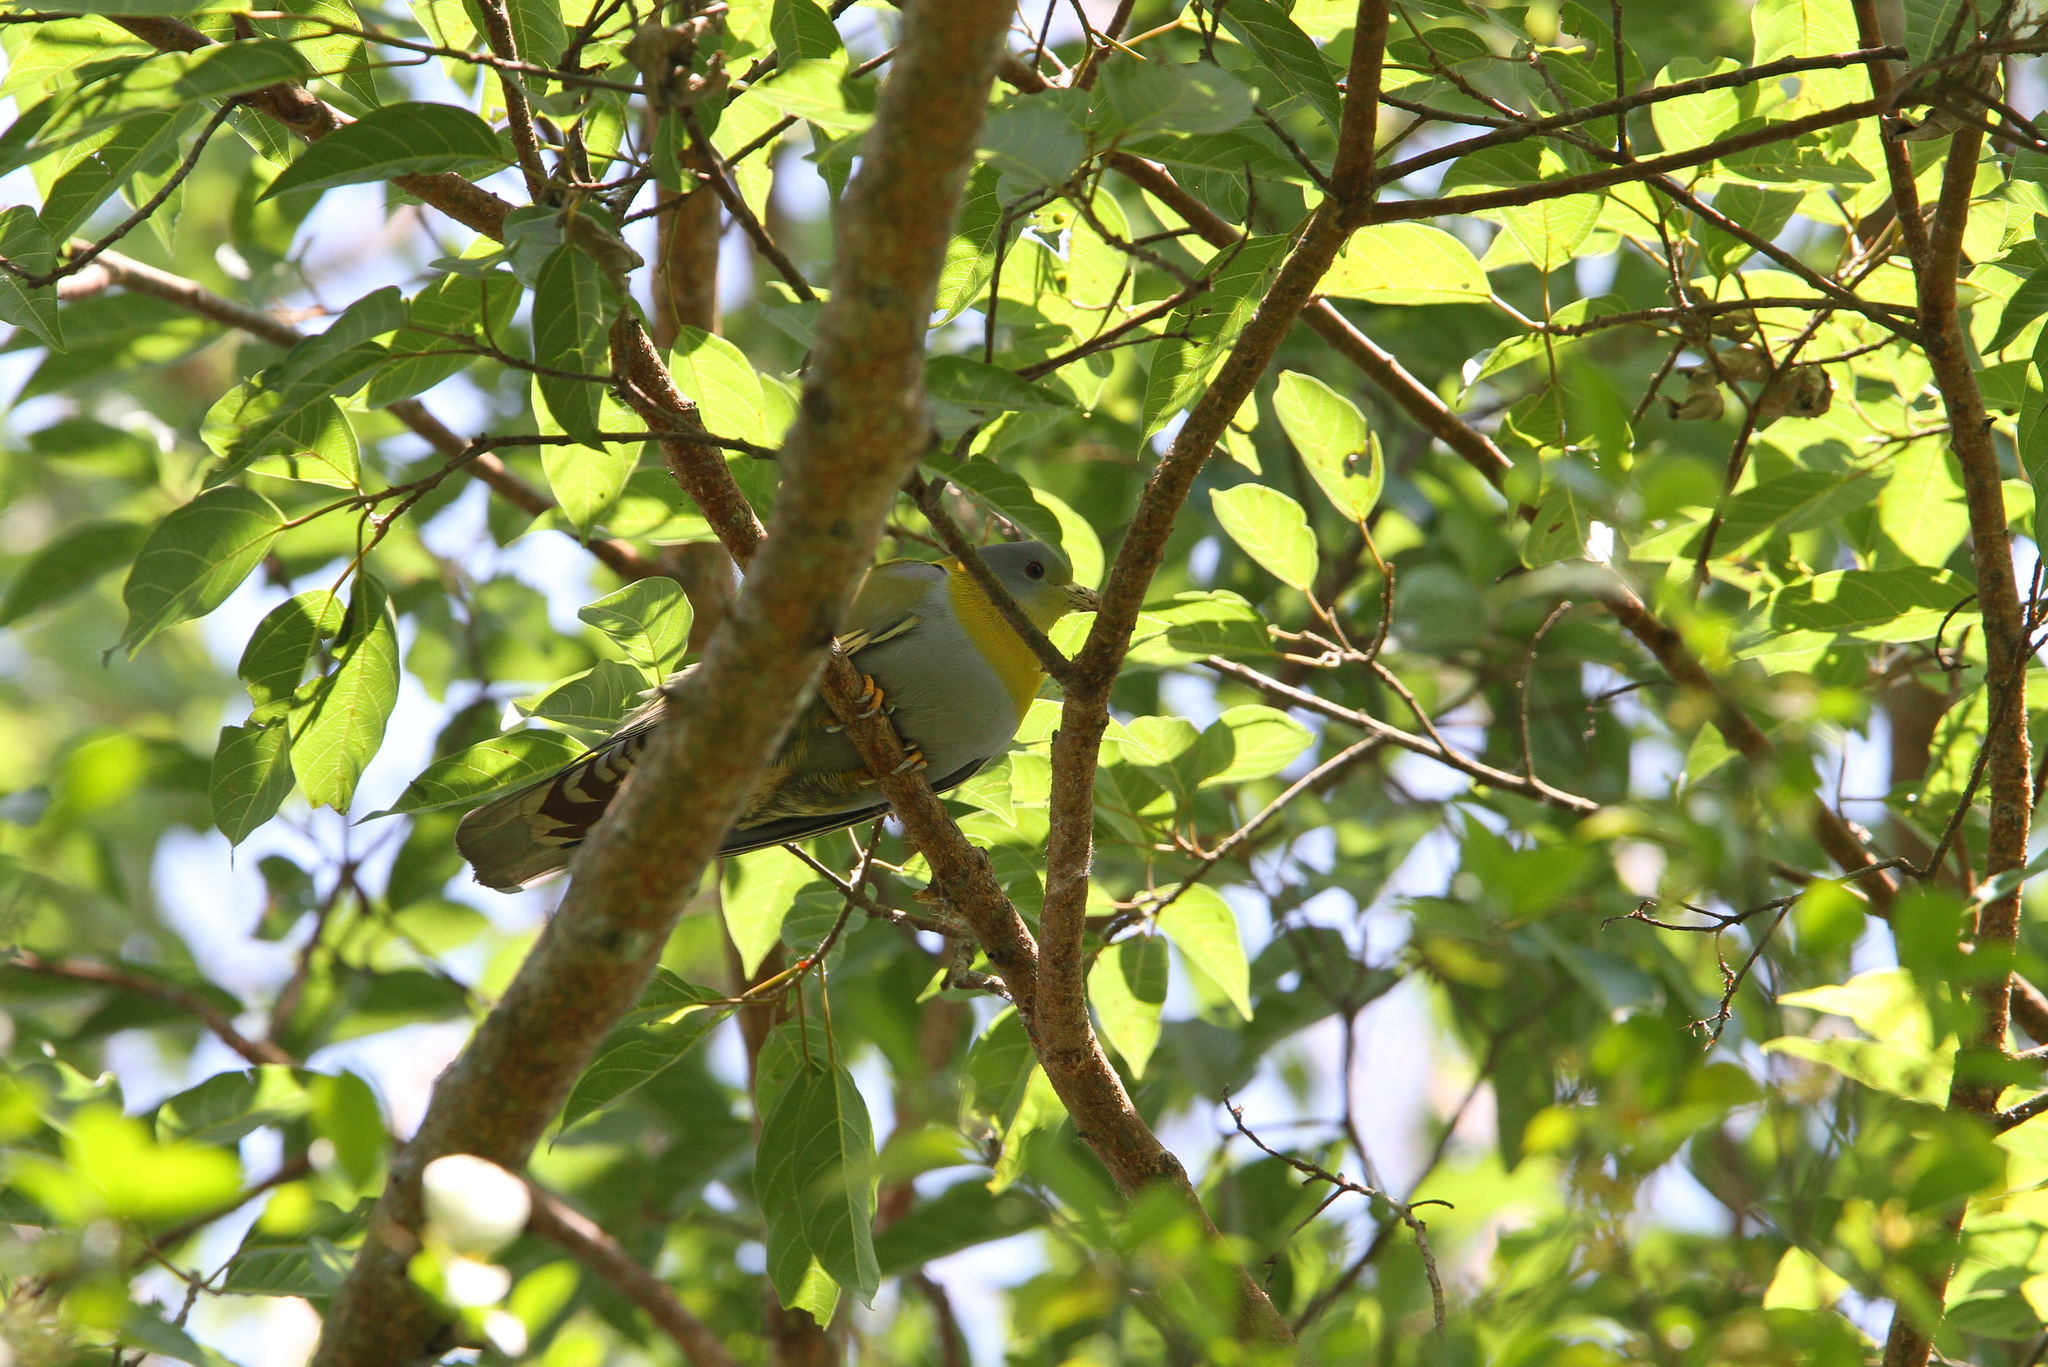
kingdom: Animalia
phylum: Chordata
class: Aves
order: Columbiformes
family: Columbidae
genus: Treron
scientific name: Treron phoenicopterus
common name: Yellow-footed green pigeon
